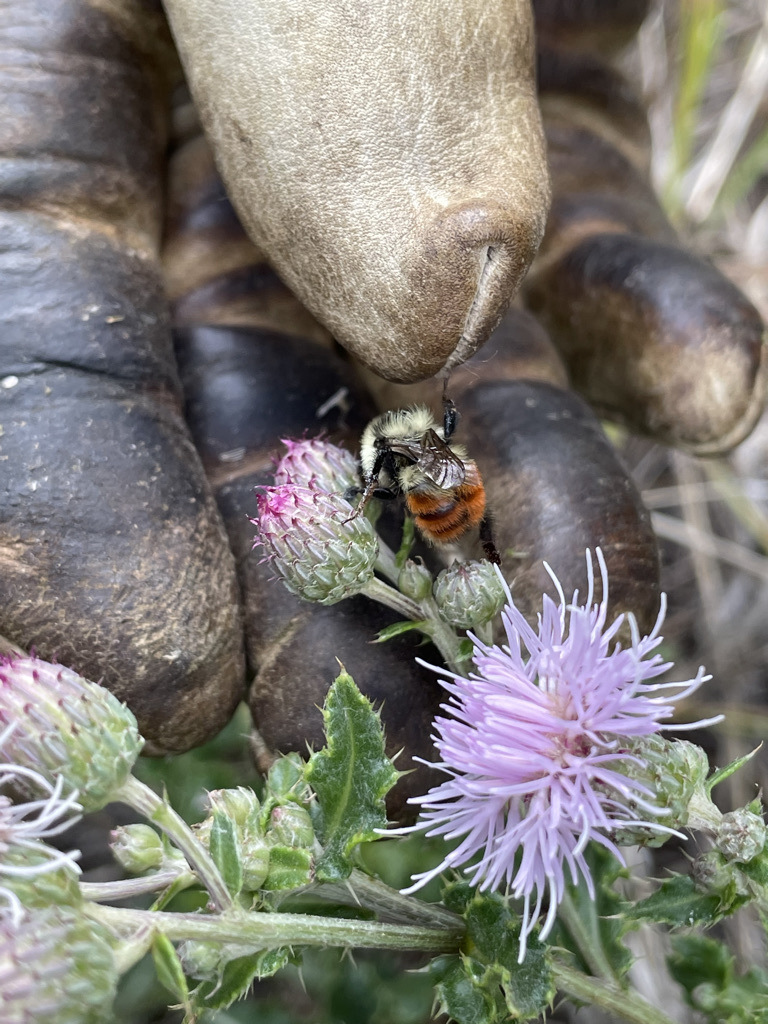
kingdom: Animalia
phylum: Arthropoda
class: Insecta
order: Hymenoptera
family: Apidae
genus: Bombus
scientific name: Bombus rufocinctus
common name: Red-belted bumble bee
